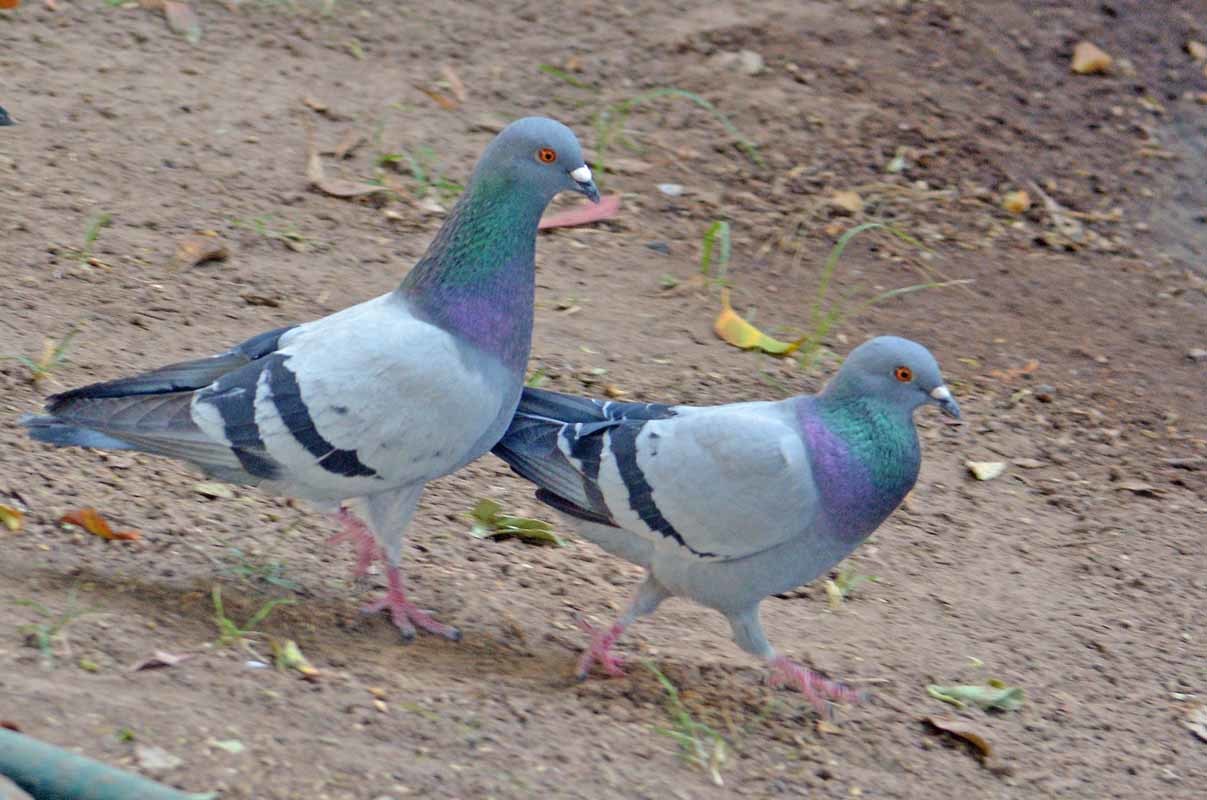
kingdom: Animalia
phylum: Chordata
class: Aves
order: Columbiformes
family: Columbidae
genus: Columba
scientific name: Columba livia
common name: Rock pigeon
